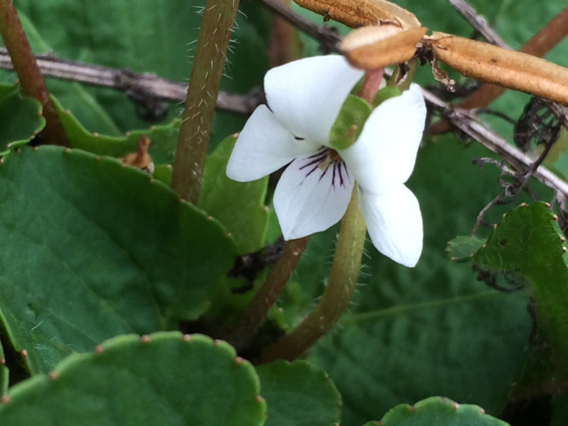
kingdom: Plantae
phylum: Tracheophyta
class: Magnoliopsida
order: Malpighiales
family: Violaceae
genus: Viola
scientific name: Viola primulifolia
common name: Primrose-leaf violet
